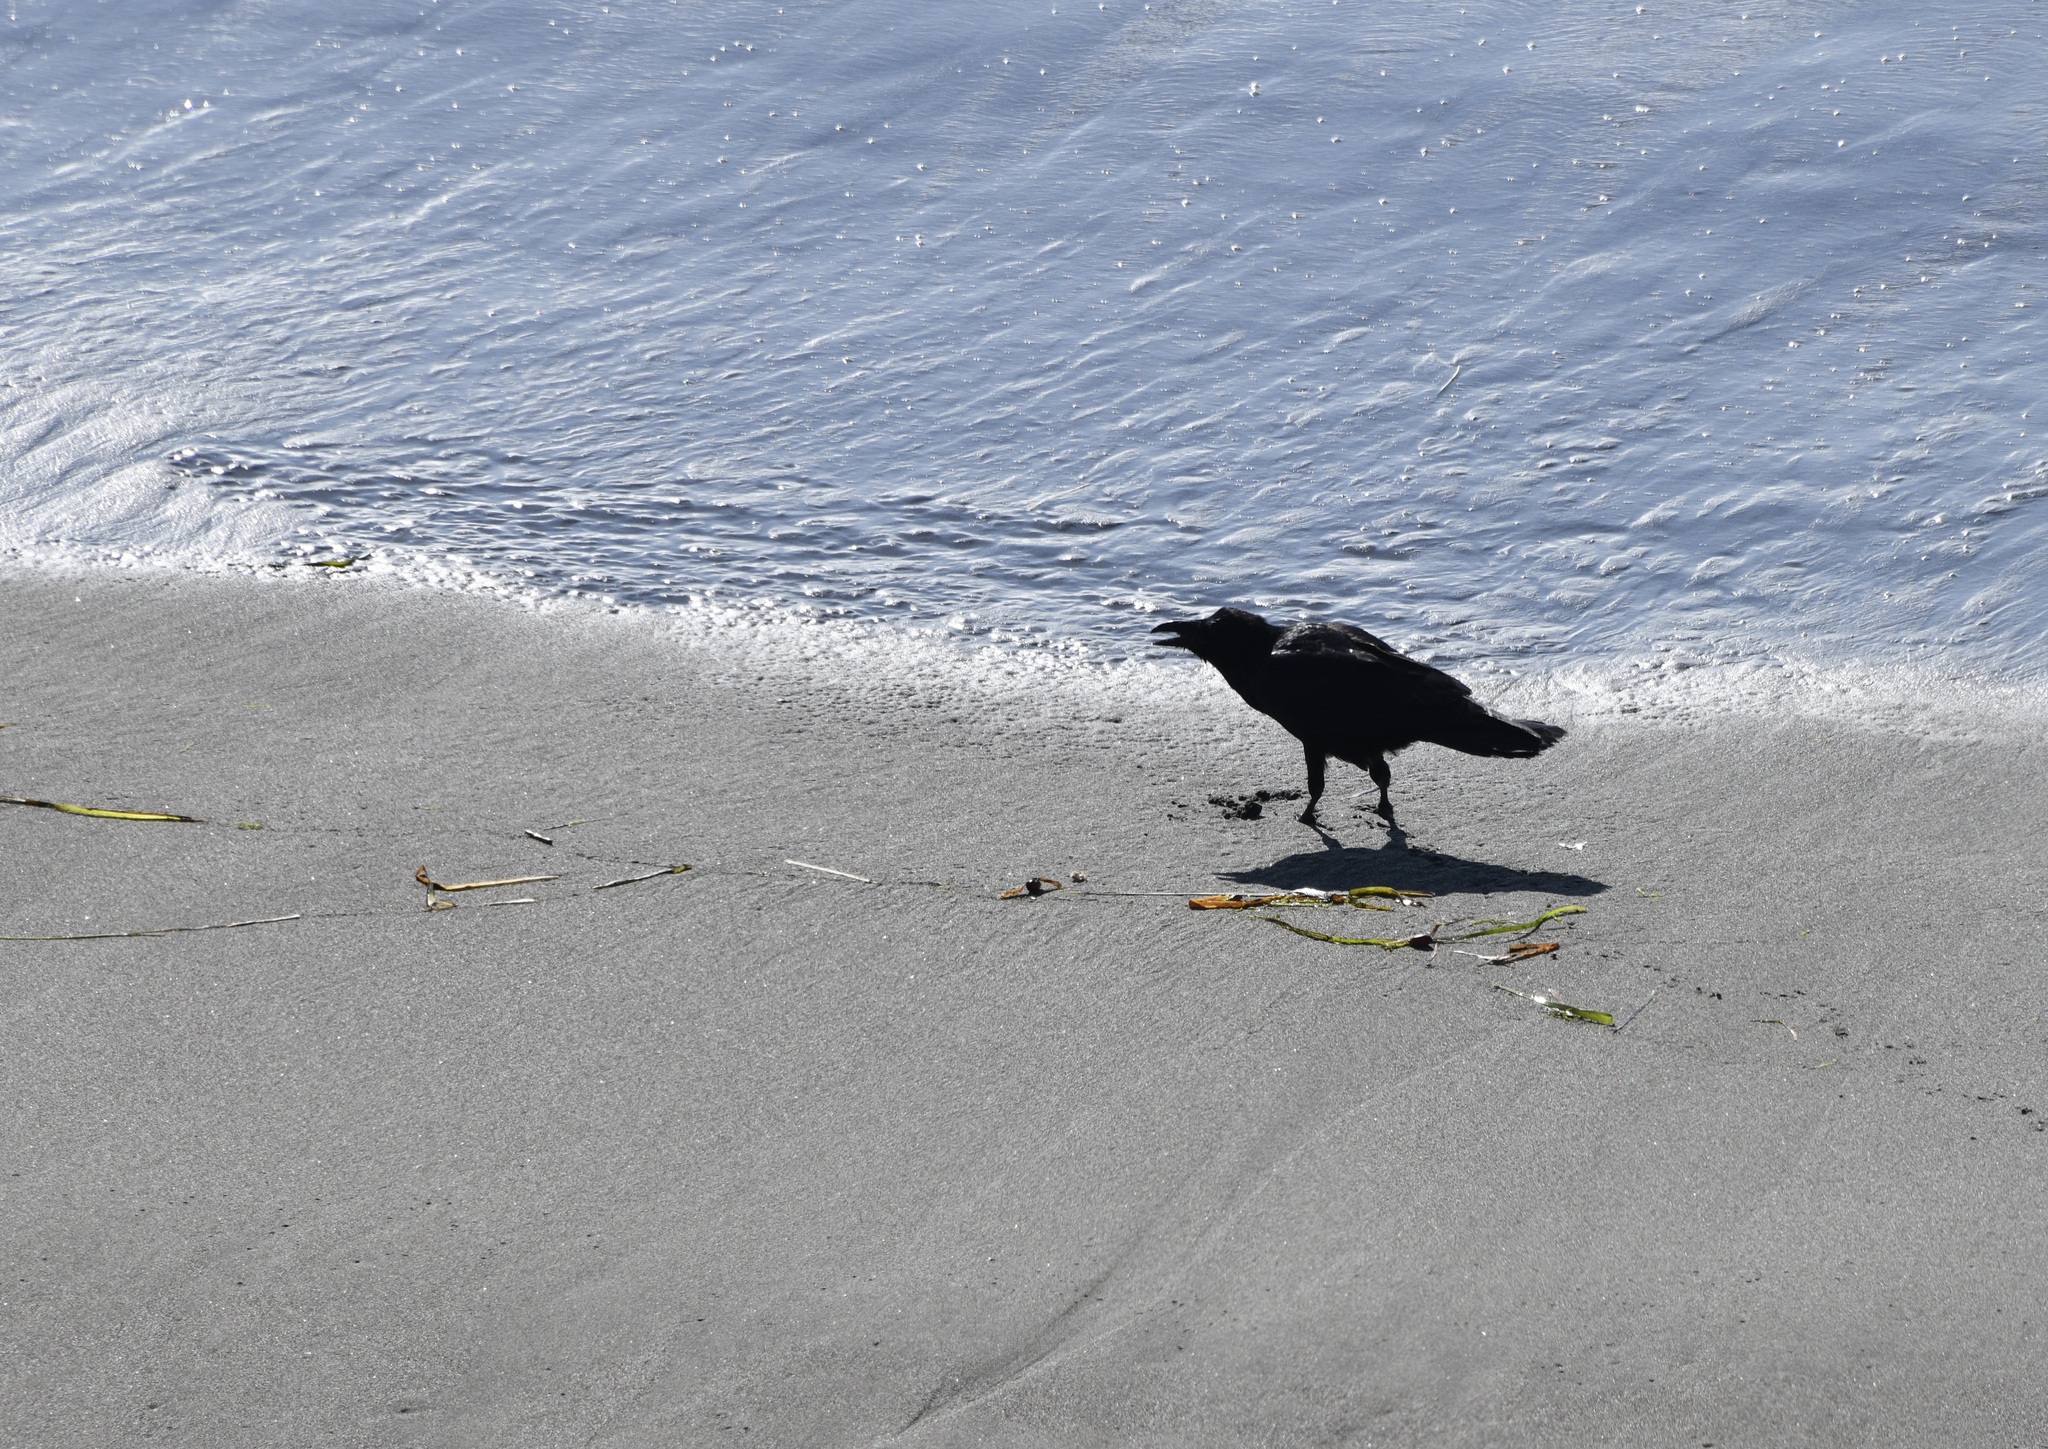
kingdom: Animalia
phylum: Chordata
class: Aves
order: Passeriformes
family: Corvidae
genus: Corvus
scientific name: Corvus corax
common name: Common raven
